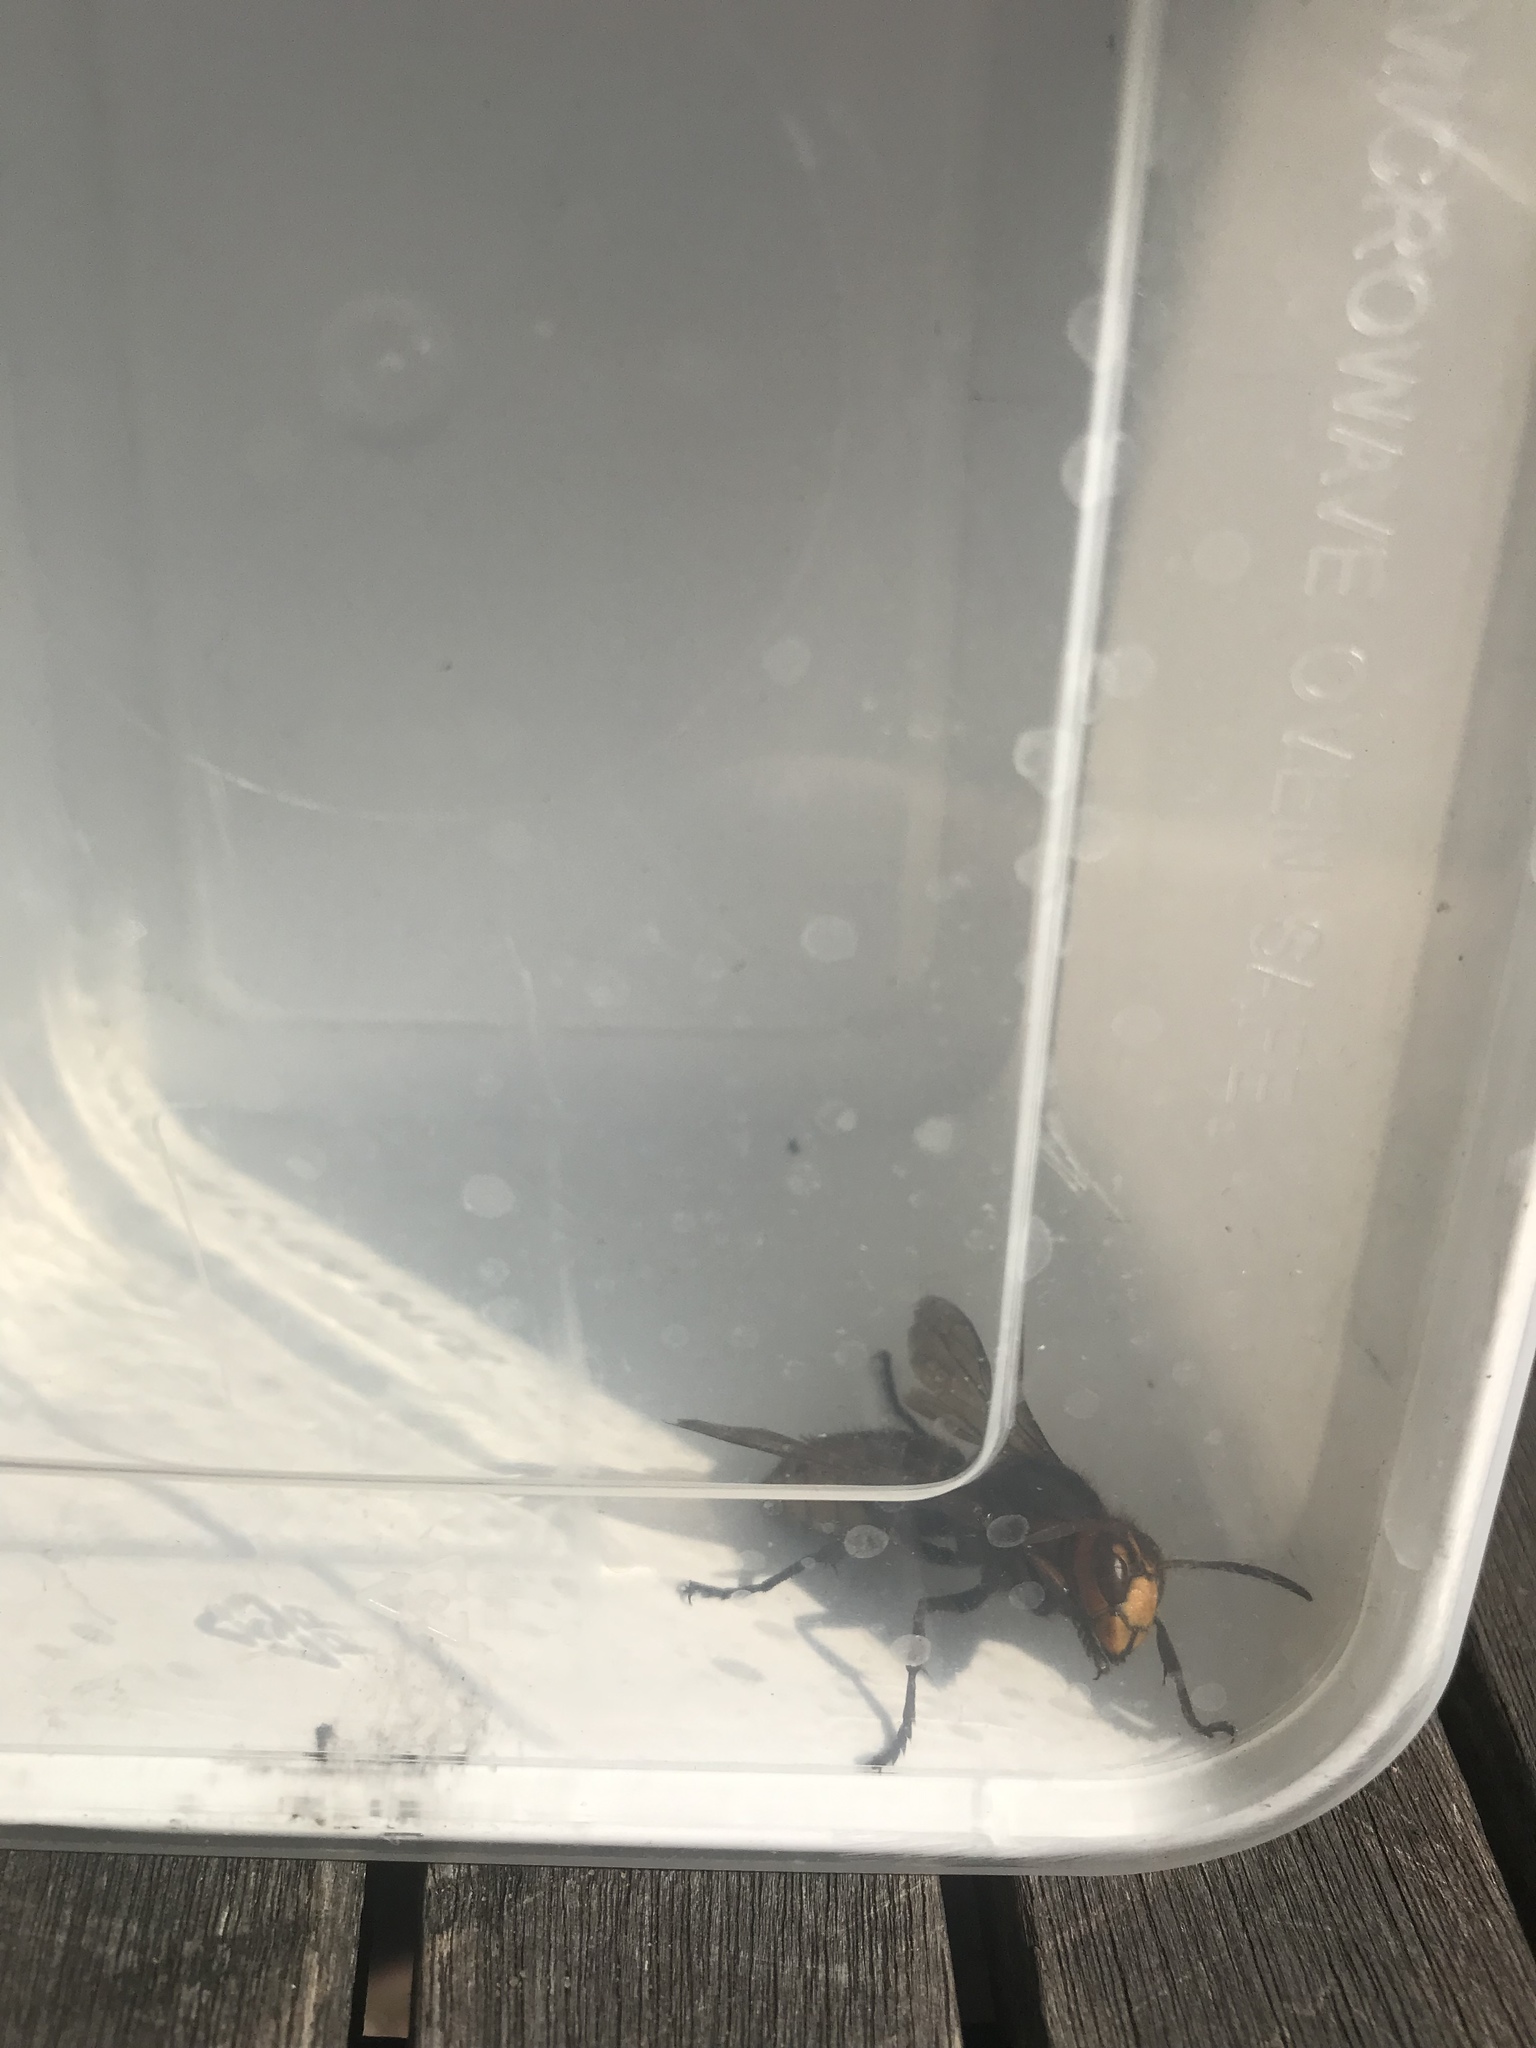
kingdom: Animalia
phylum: Arthropoda
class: Insecta
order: Hymenoptera
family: Vespidae
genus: Vespa
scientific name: Vespa crabro
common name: Hornet
